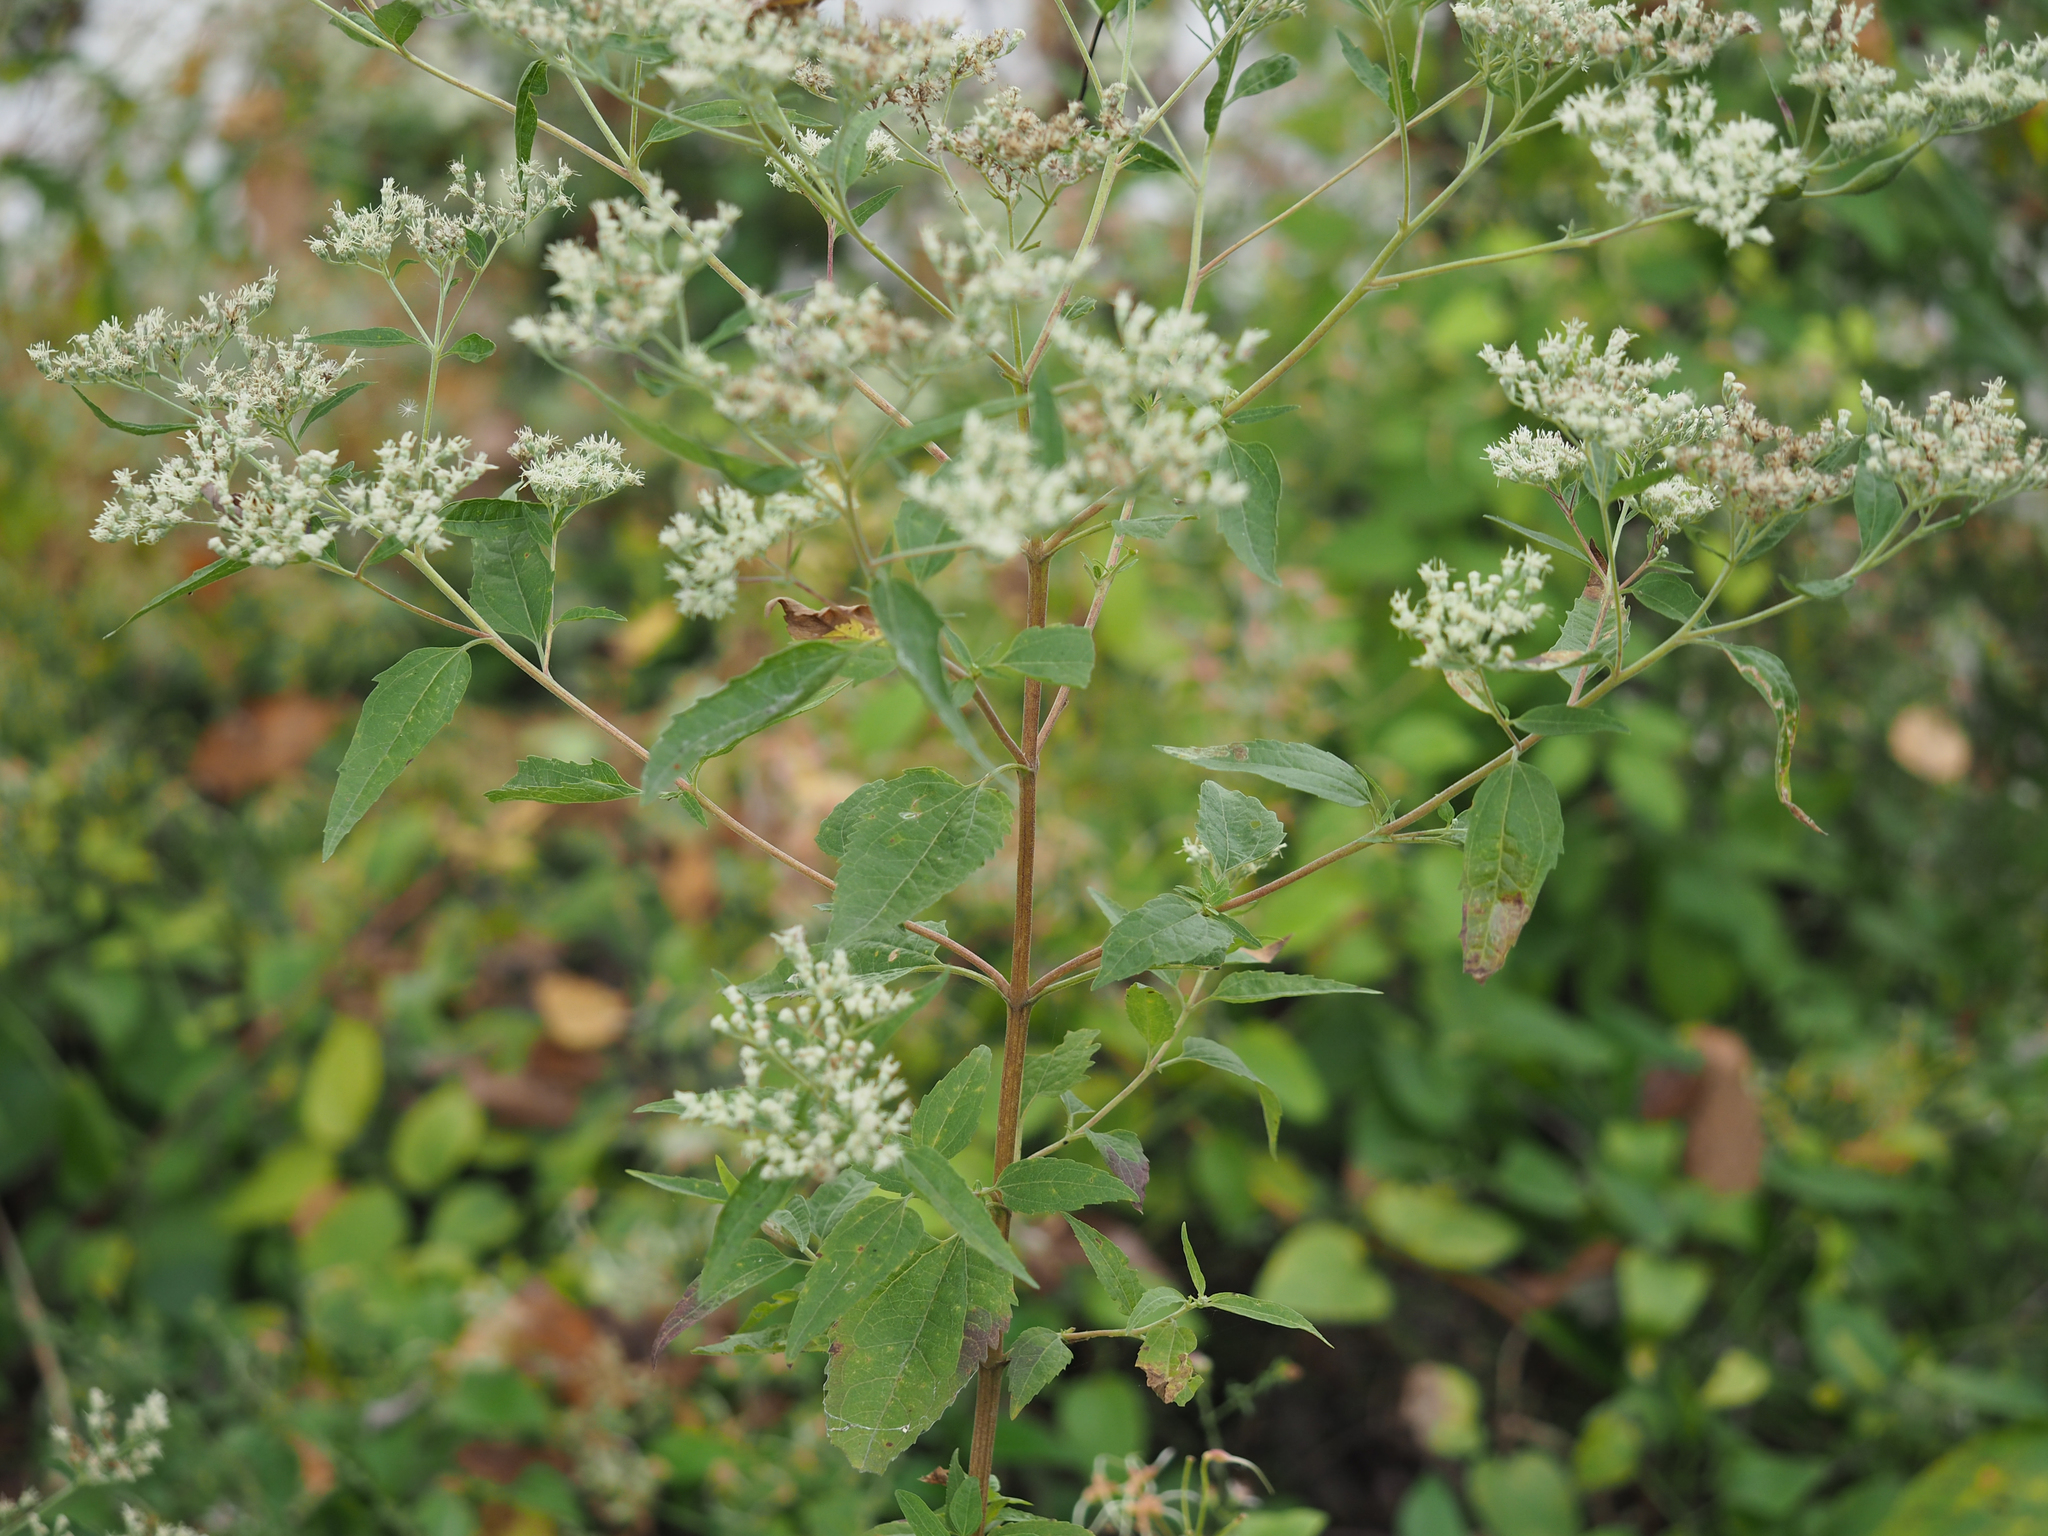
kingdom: Plantae
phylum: Tracheophyta
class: Magnoliopsida
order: Asterales
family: Asteraceae
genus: Eupatorium
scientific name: Eupatorium serotinum
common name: Late boneset
